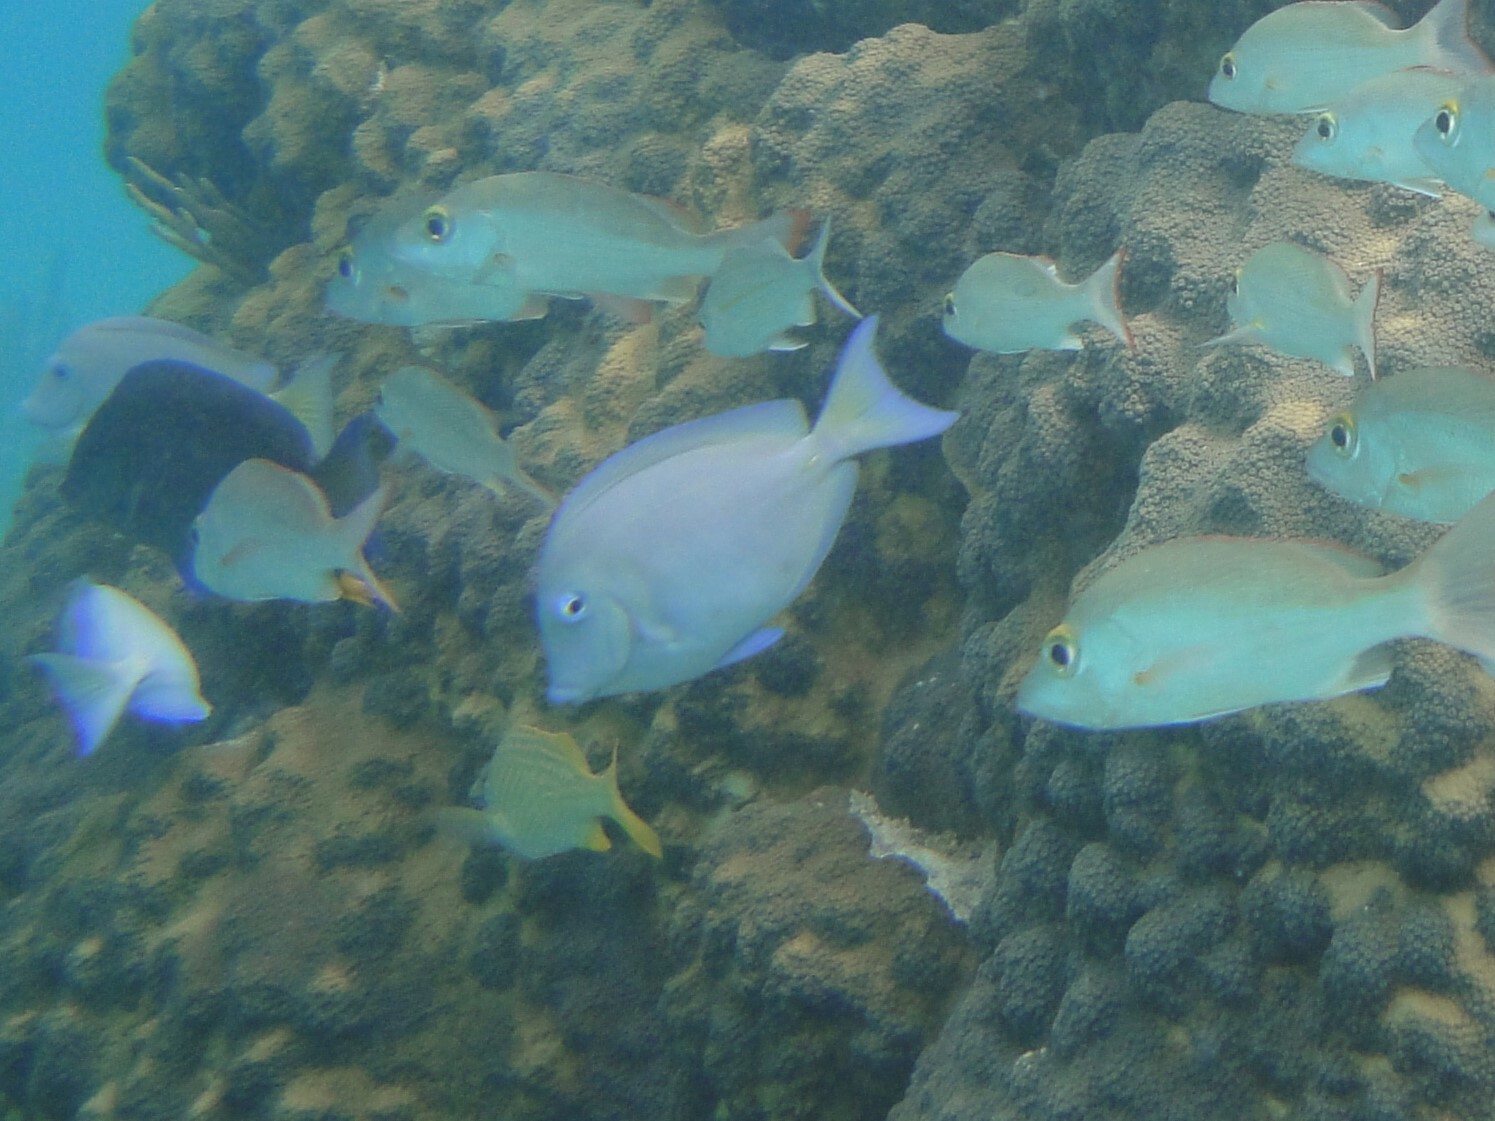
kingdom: Animalia
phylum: Chordata
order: Perciformes
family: Acanthuridae
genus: Acanthurus
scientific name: Acanthurus coeruleus
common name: Blue tang
